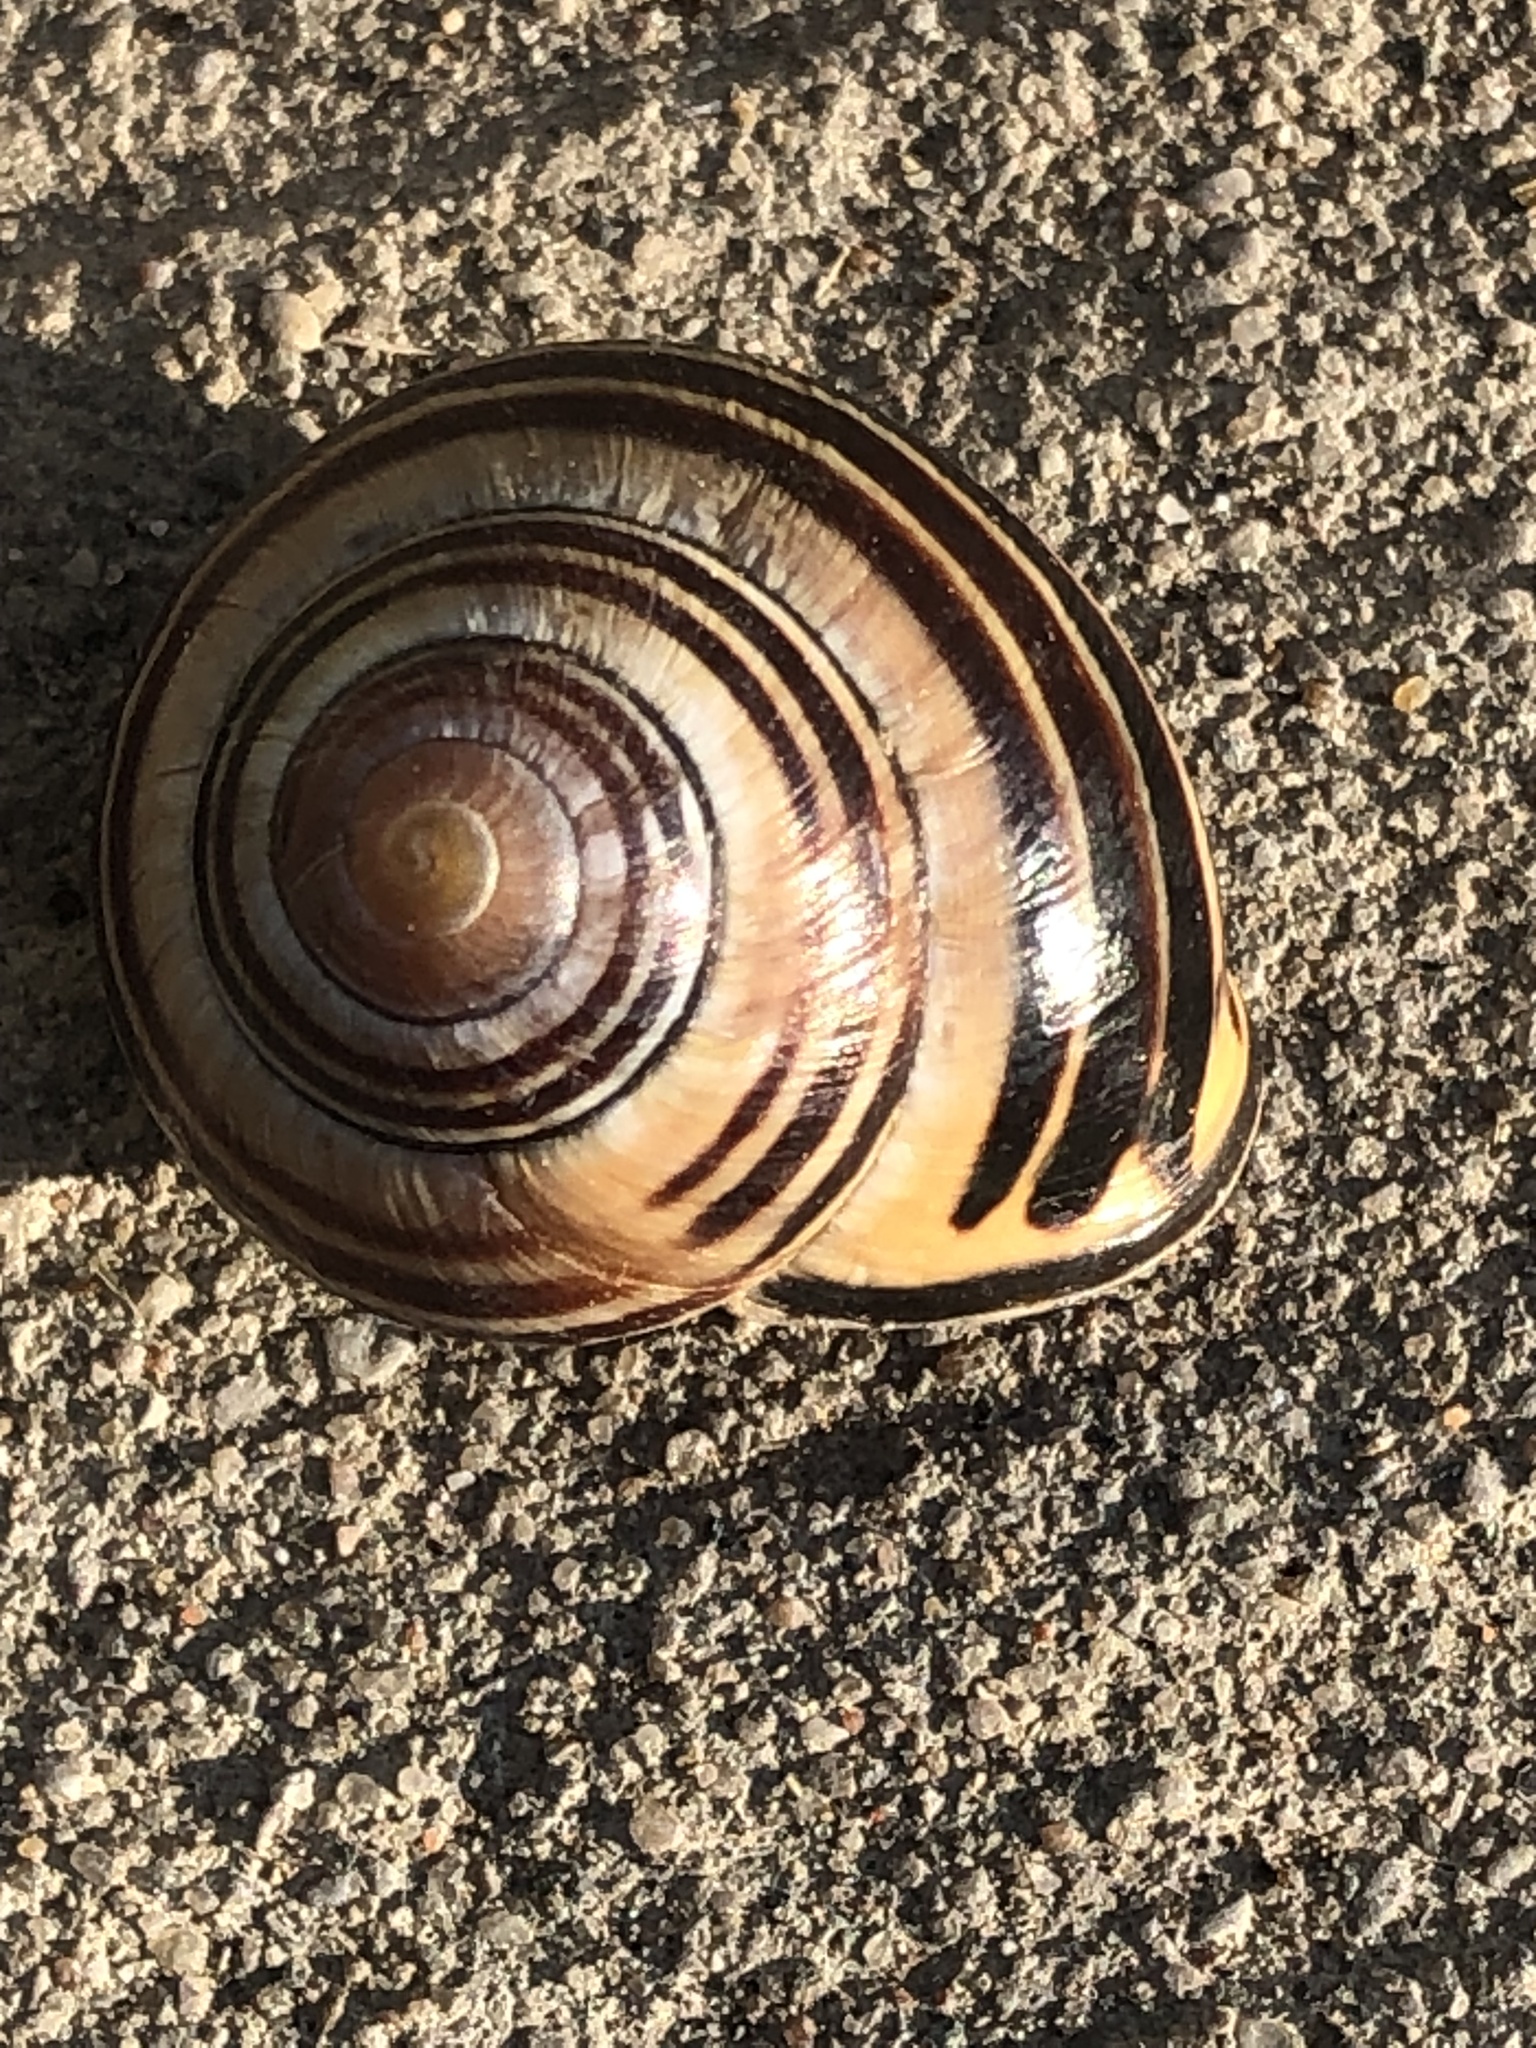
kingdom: Animalia
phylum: Mollusca
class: Gastropoda
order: Stylommatophora
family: Helicidae
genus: Cepaea
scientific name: Cepaea nemoralis
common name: Grovesnail
